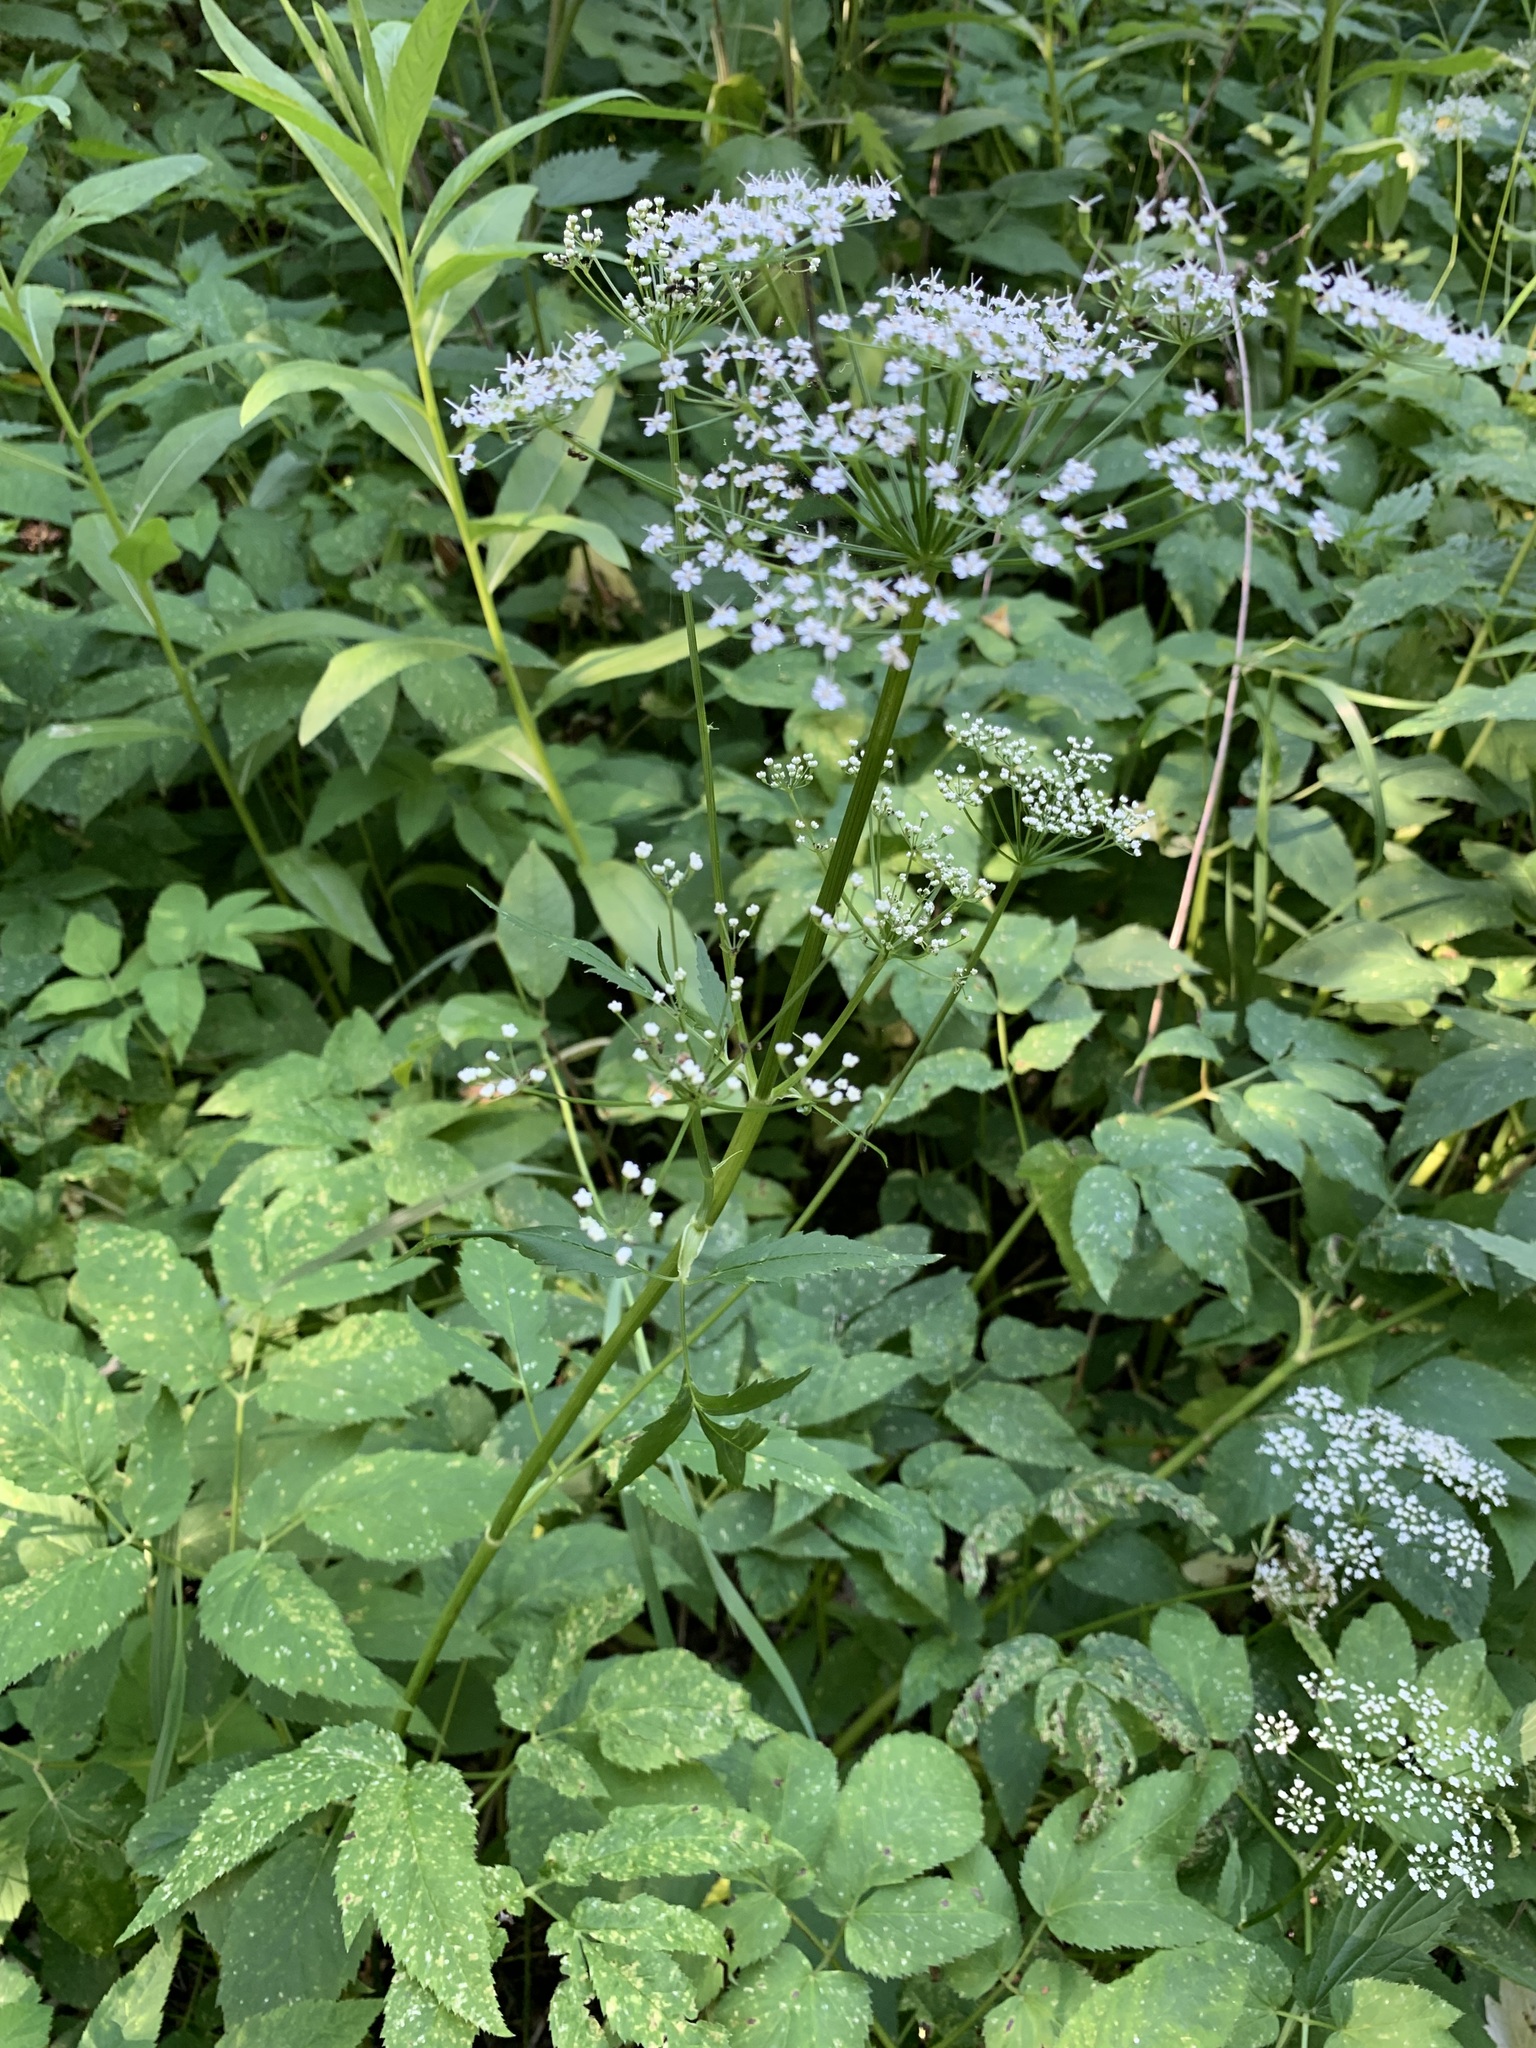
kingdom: Plantae
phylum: Tracheophyta
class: Magnoliopsida
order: Apiales
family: Apiaceae
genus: Aegopodium
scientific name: Aegopodium podagraria
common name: Ground-elder
